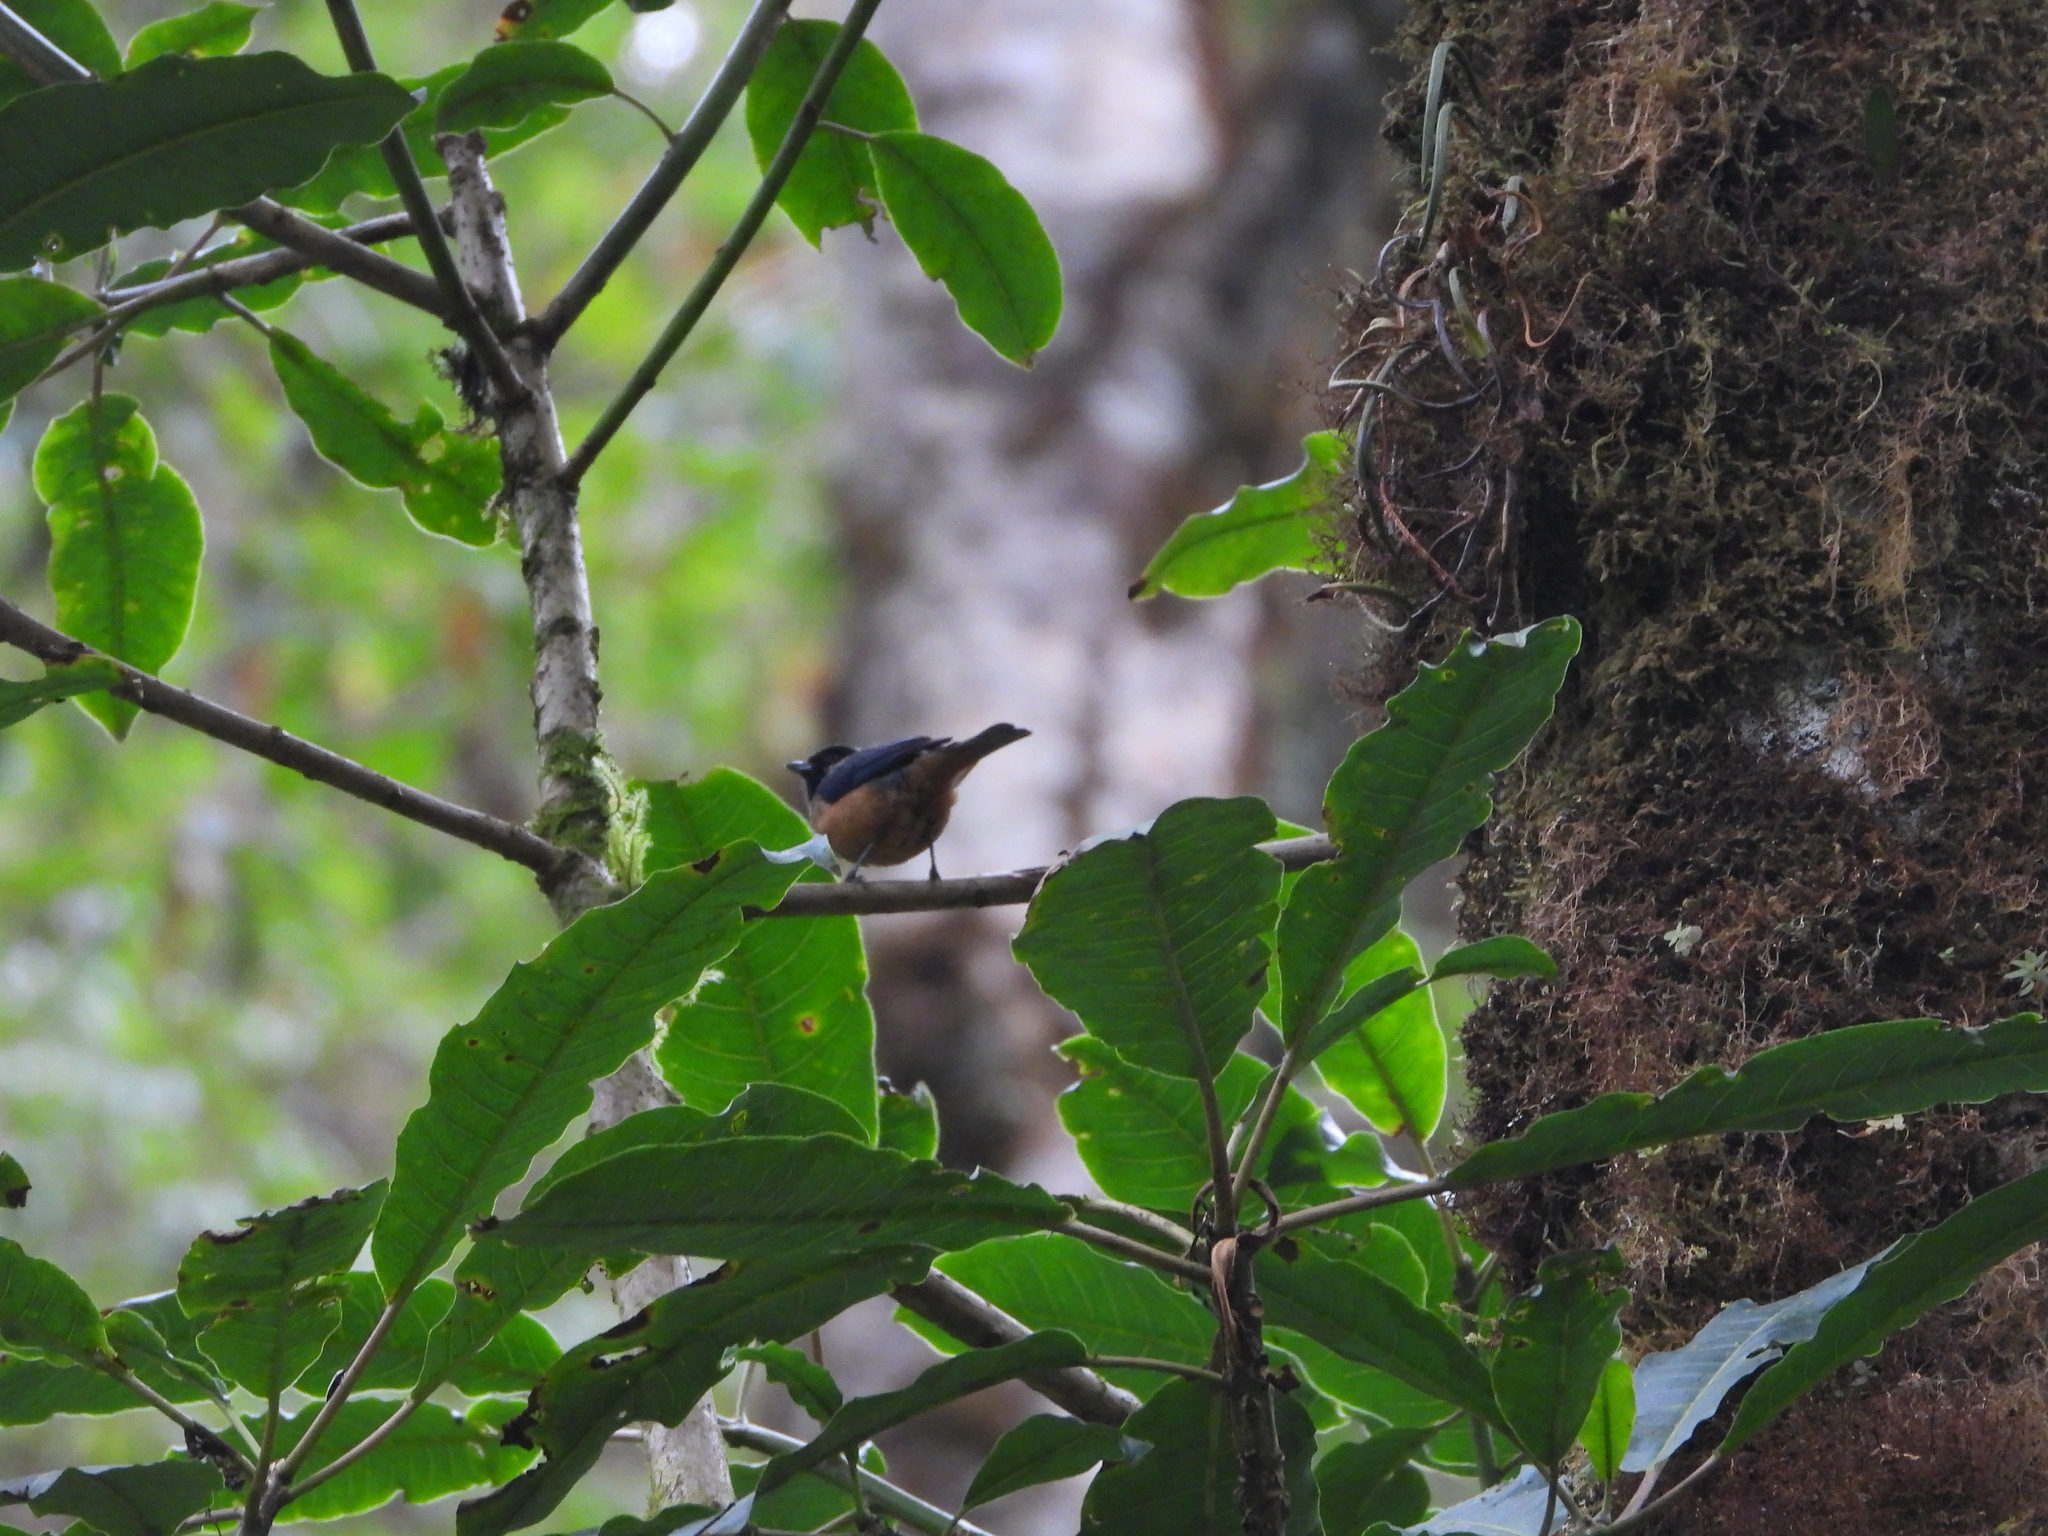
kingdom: Animalia
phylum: Chordata
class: Aves
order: Passeriformes
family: Thraupidae
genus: Tangara
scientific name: Tangara dowii
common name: Spangle-cheeked tanager
